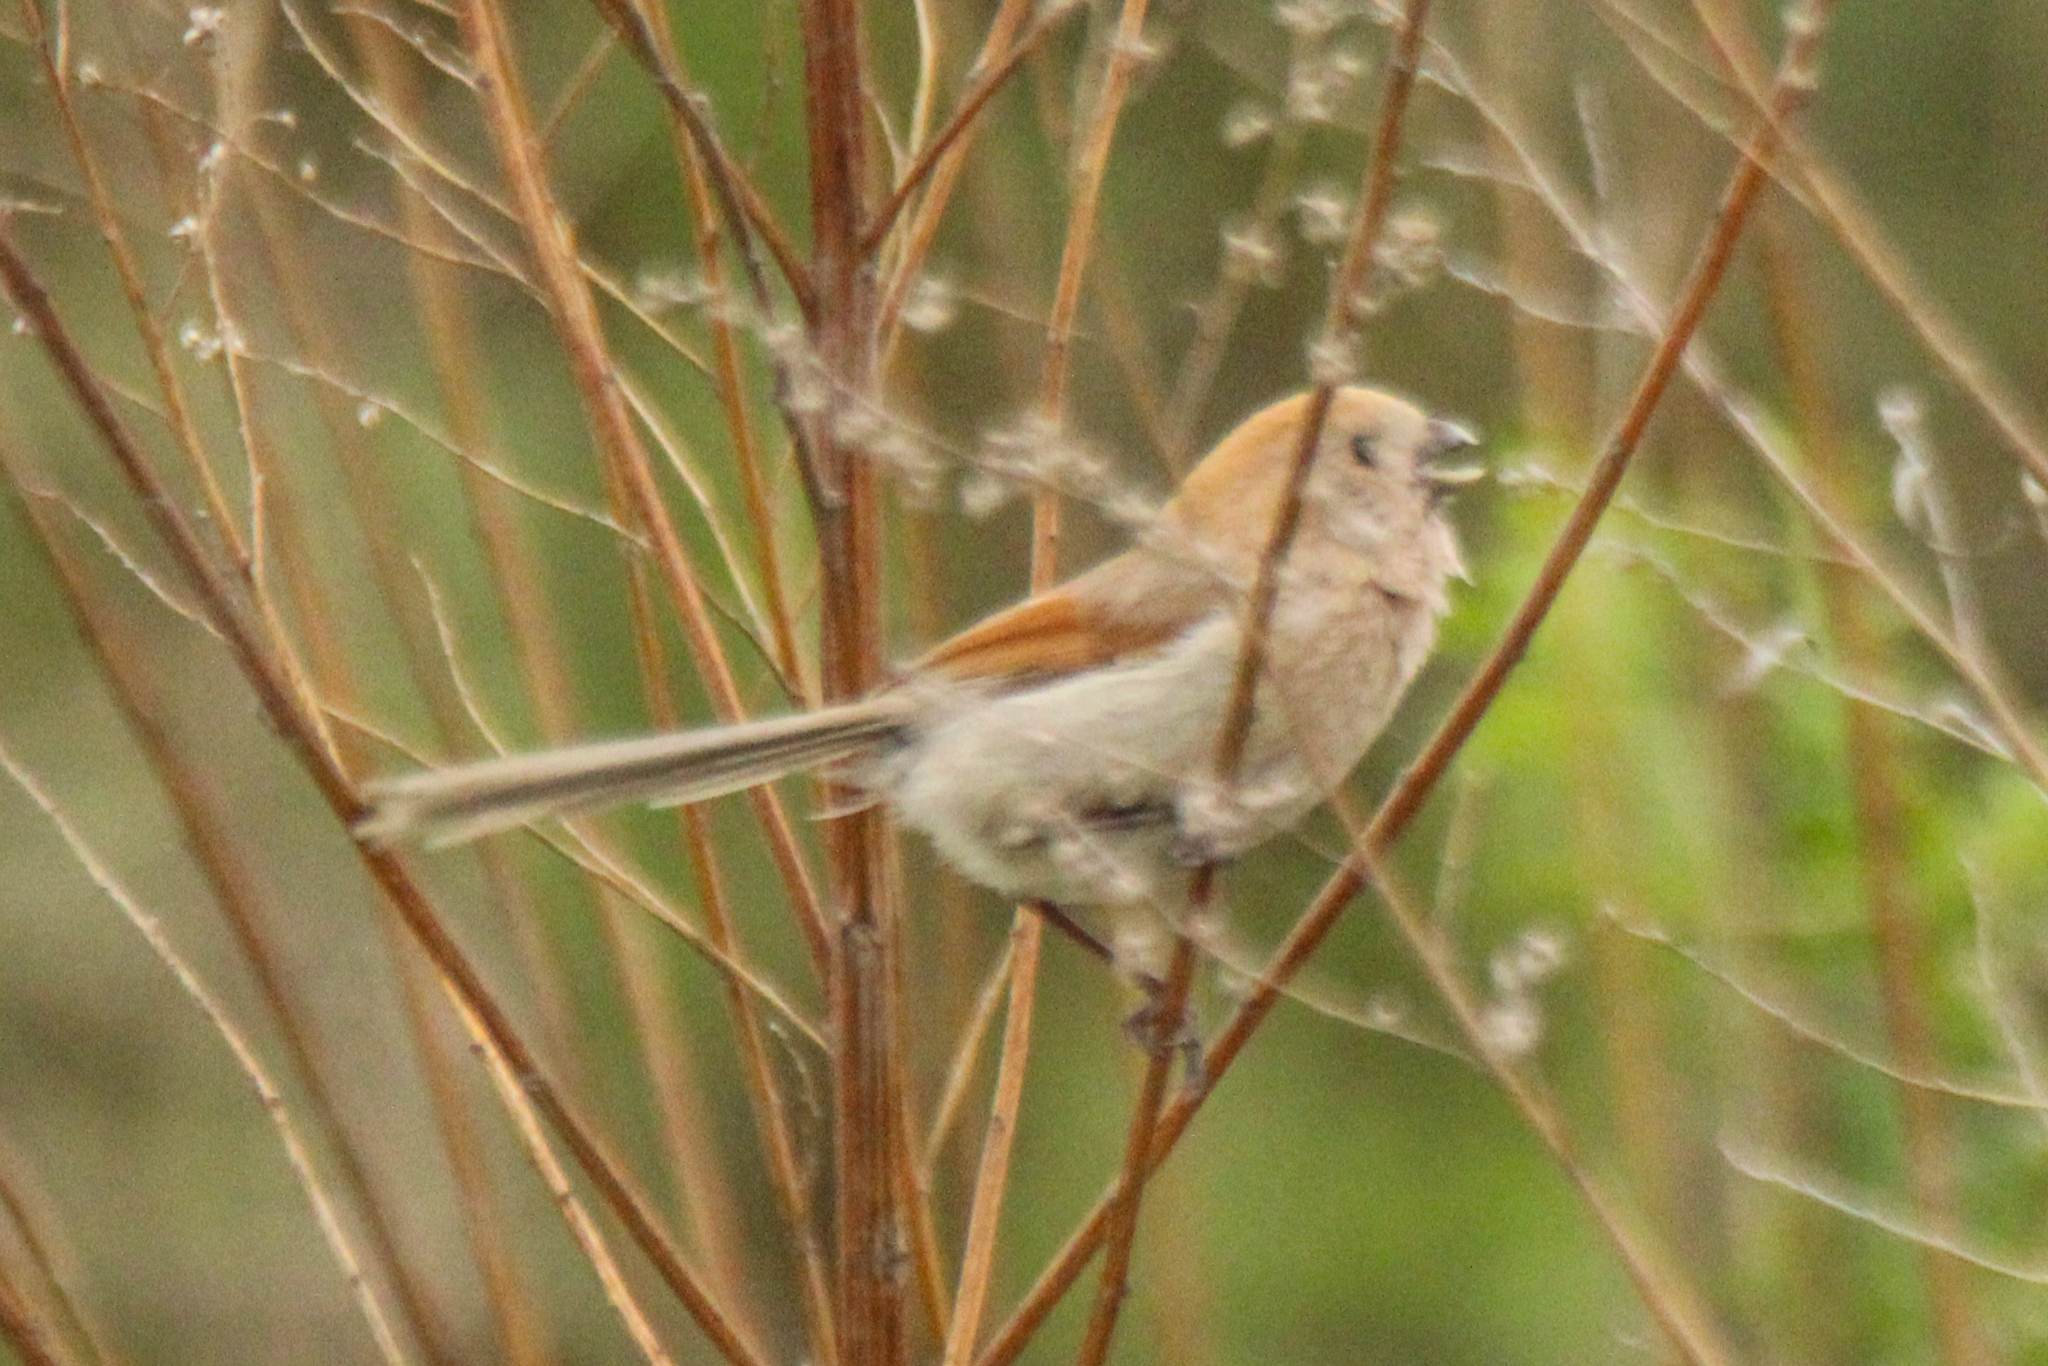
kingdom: Animalia
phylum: Chordata
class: Aves
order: Passeriformes
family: Sylviidae
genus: Sinosuthora
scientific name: Sinosuthora webbiana
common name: Vinous-throated parrotbill
